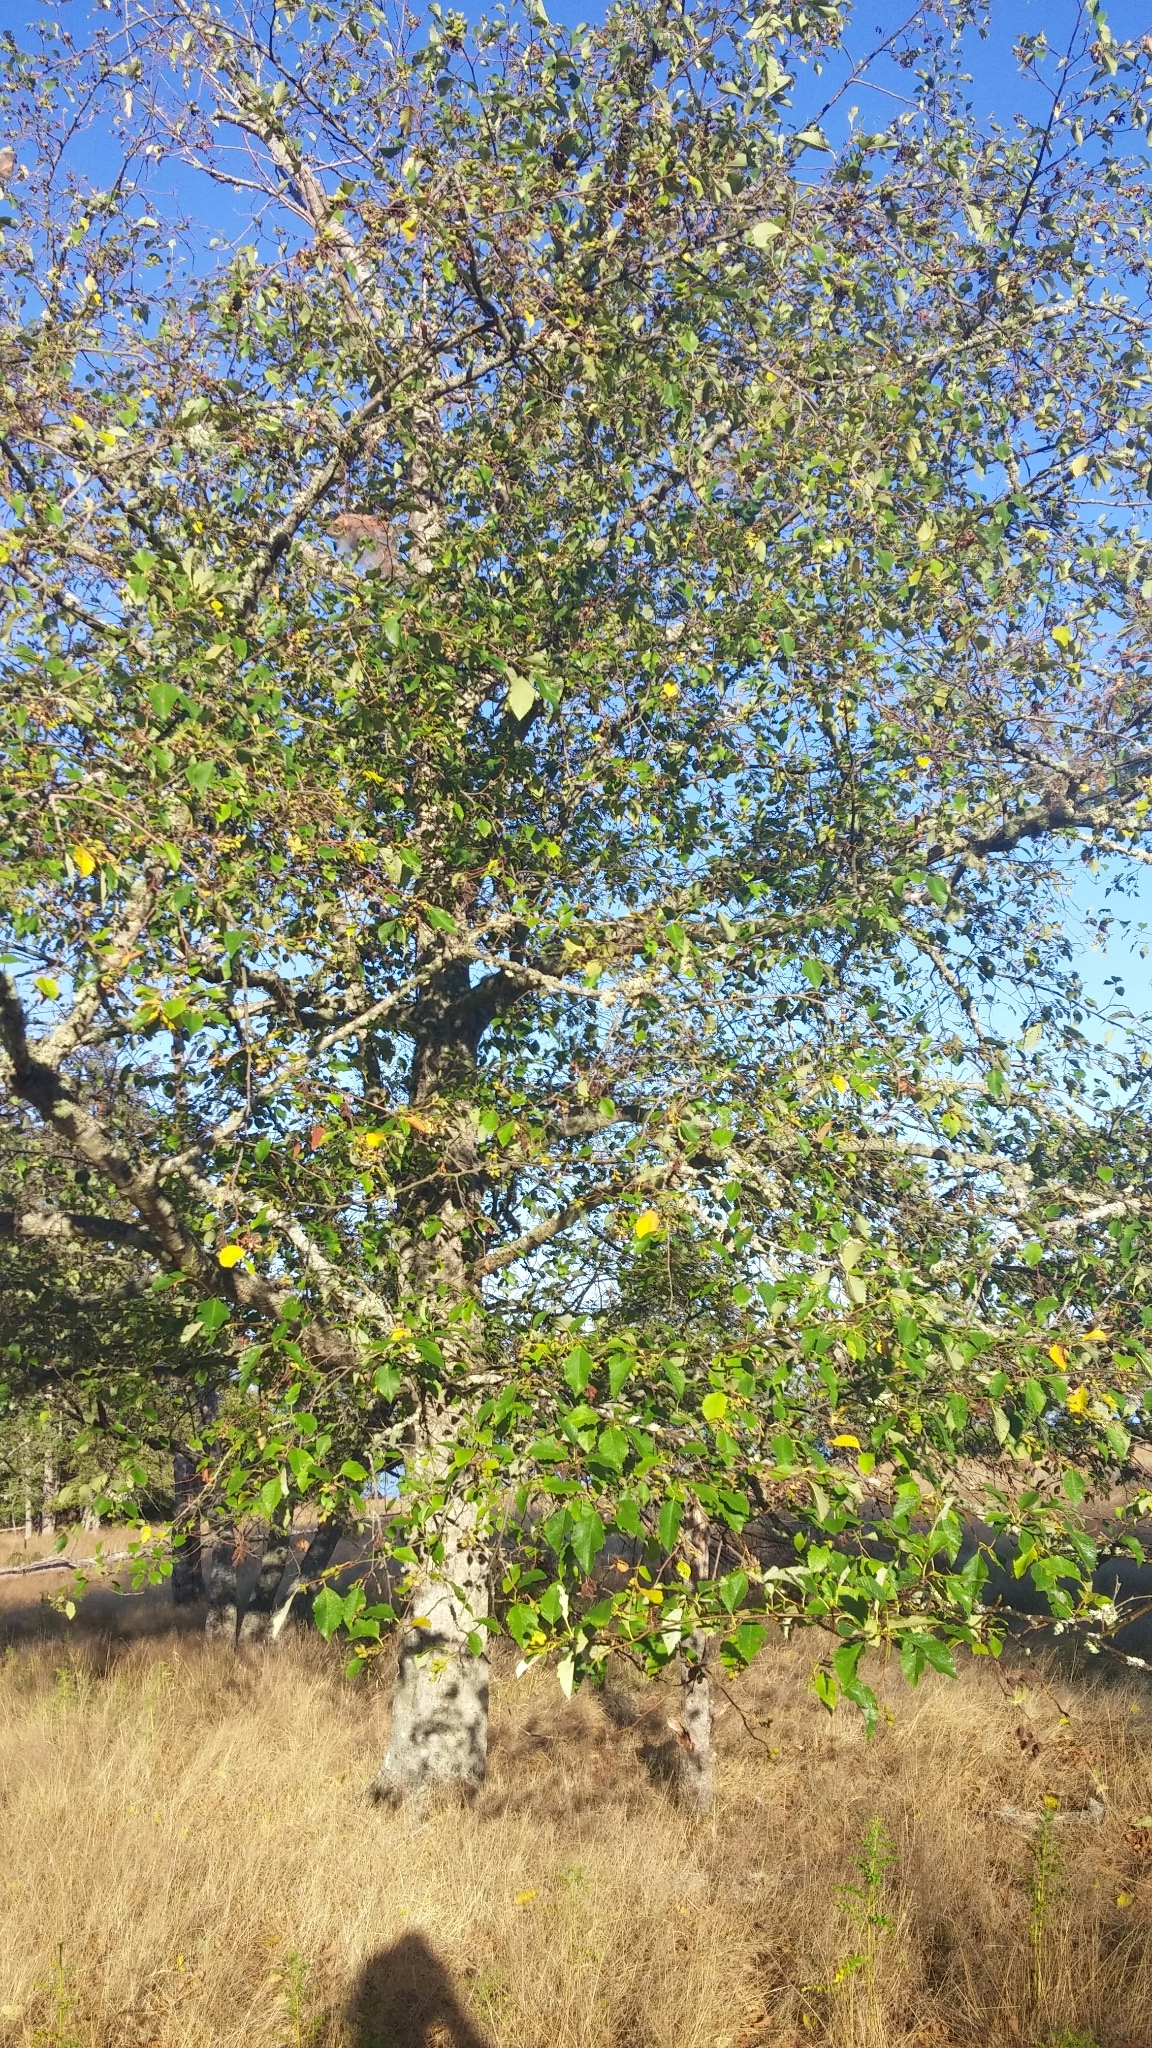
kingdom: Plantae
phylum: Tracheophyta
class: Magnoliopsida
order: Fagales
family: Betulaceae
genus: Alnus
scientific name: Alnus rubra
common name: Red alder
